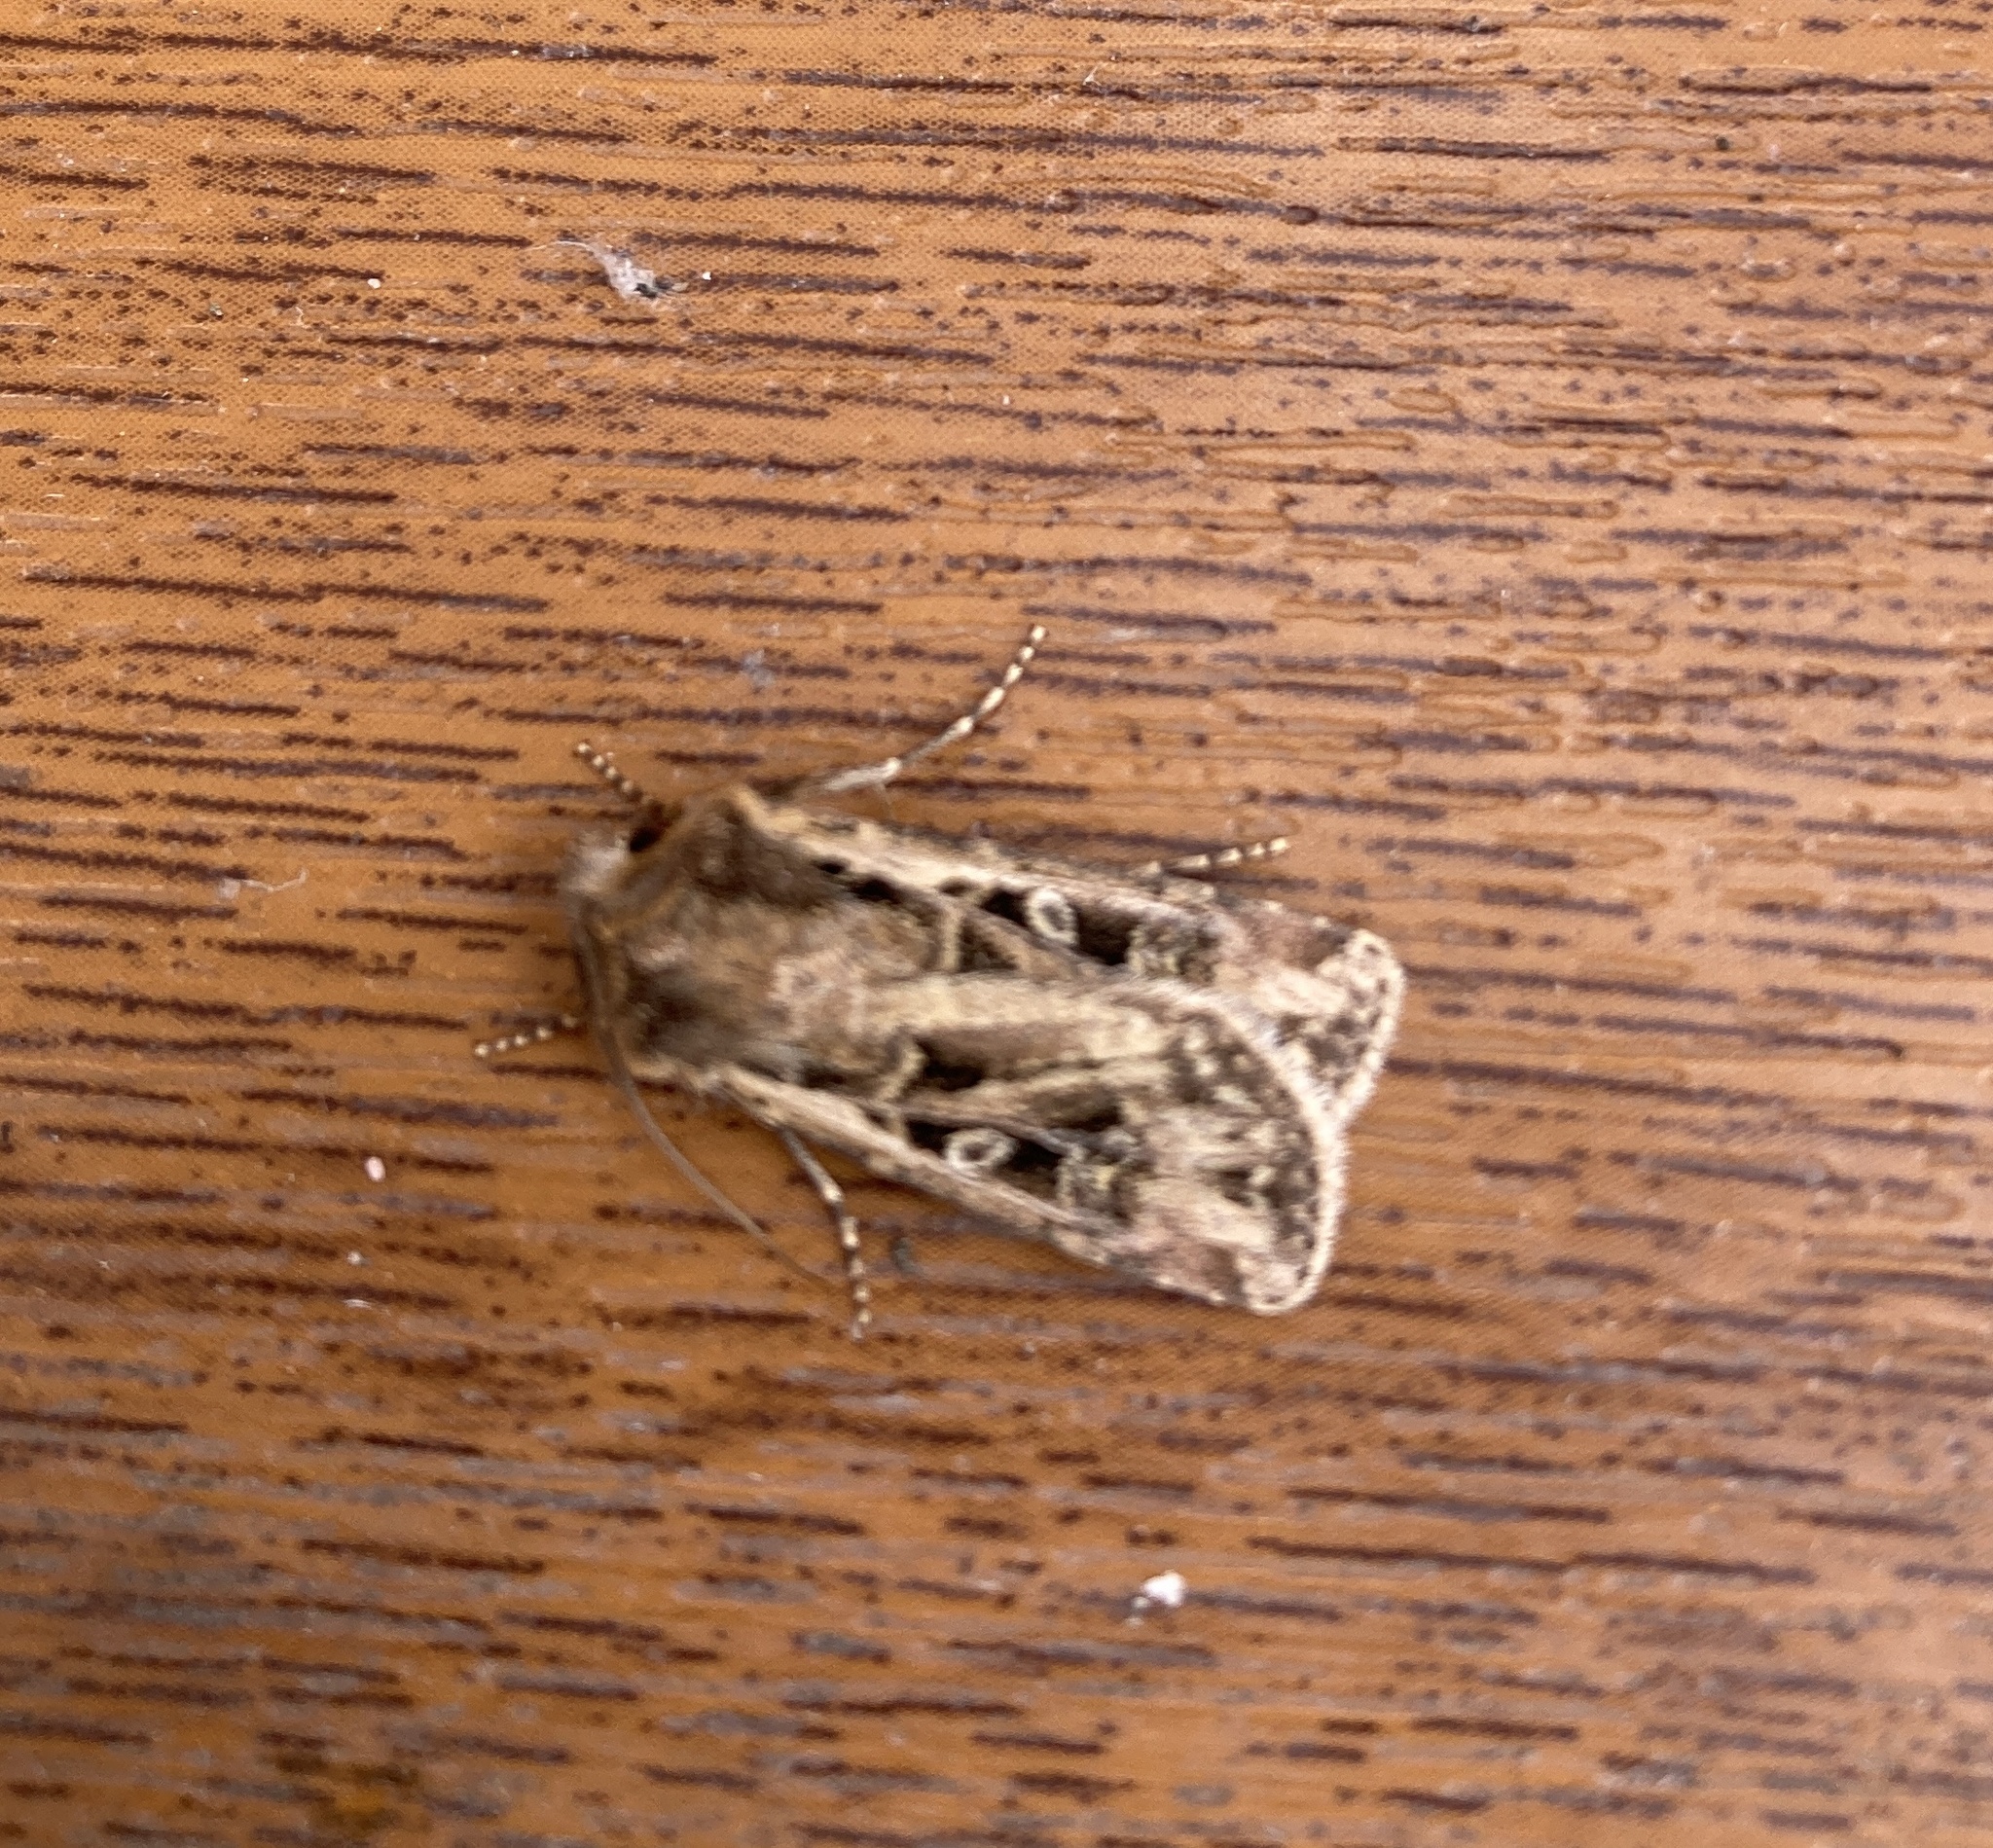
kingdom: Animalia
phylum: Arthropoda
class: Insecta
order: Lepidoptera
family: Noctuidae
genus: Euxoa
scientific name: Euxoa tritici
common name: White-line dart
